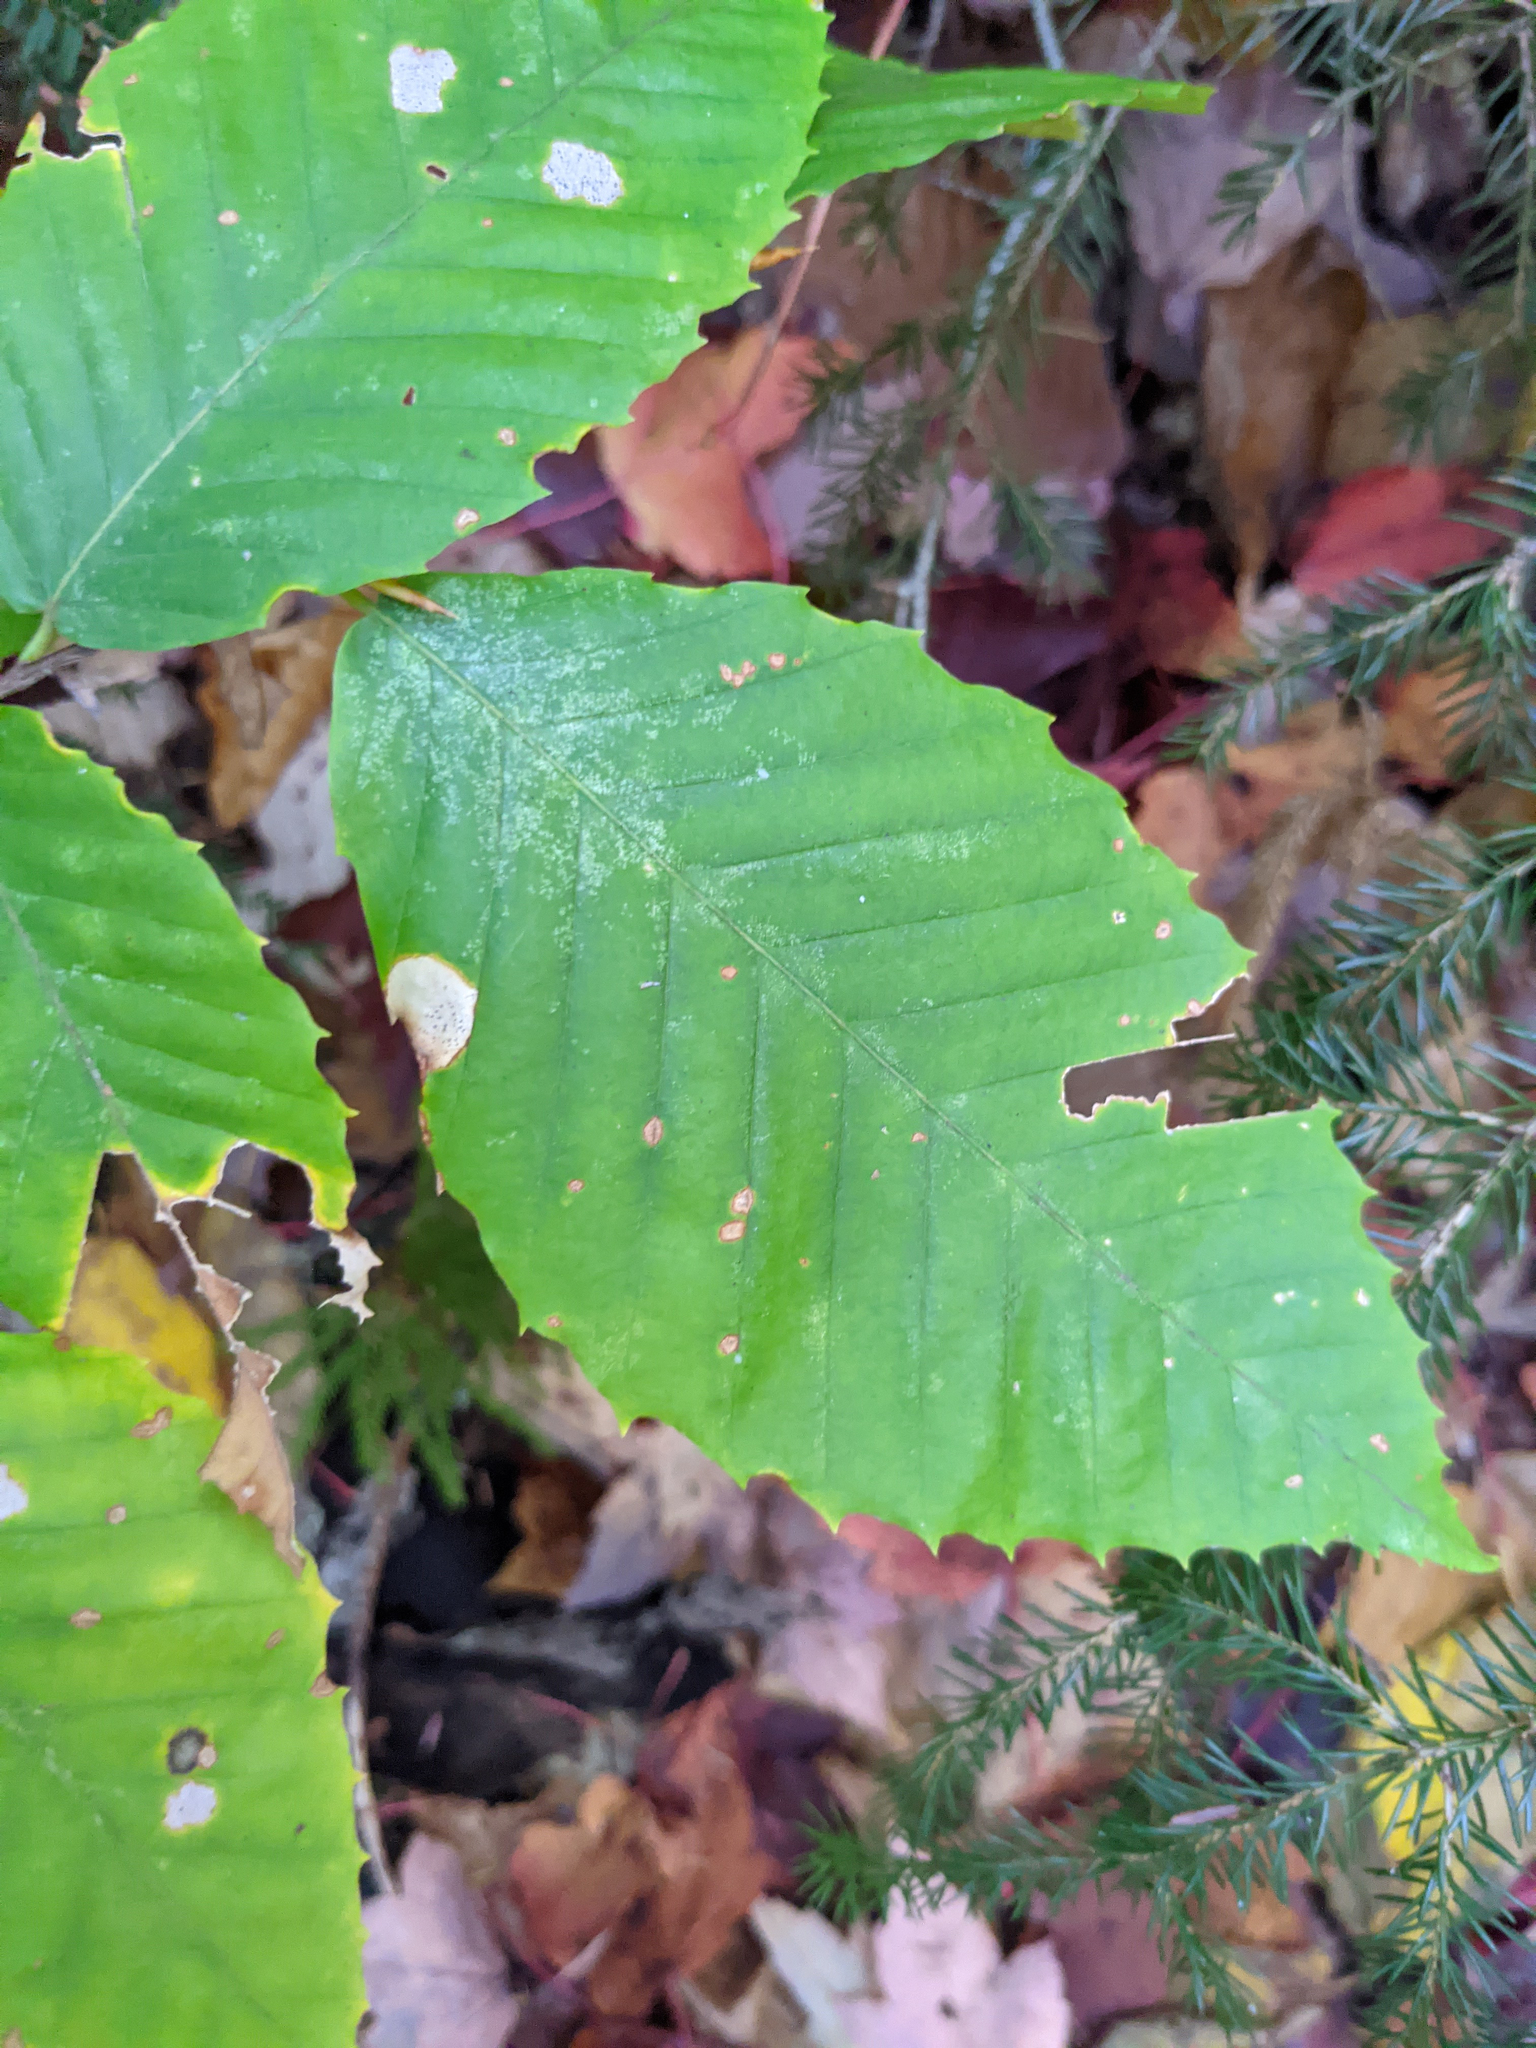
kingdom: Plantae
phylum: Tracheophyta
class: Magnoliopsida
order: Fagales
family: Fagaceae
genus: Fagus
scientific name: Fagus grandifolia
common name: American beech
